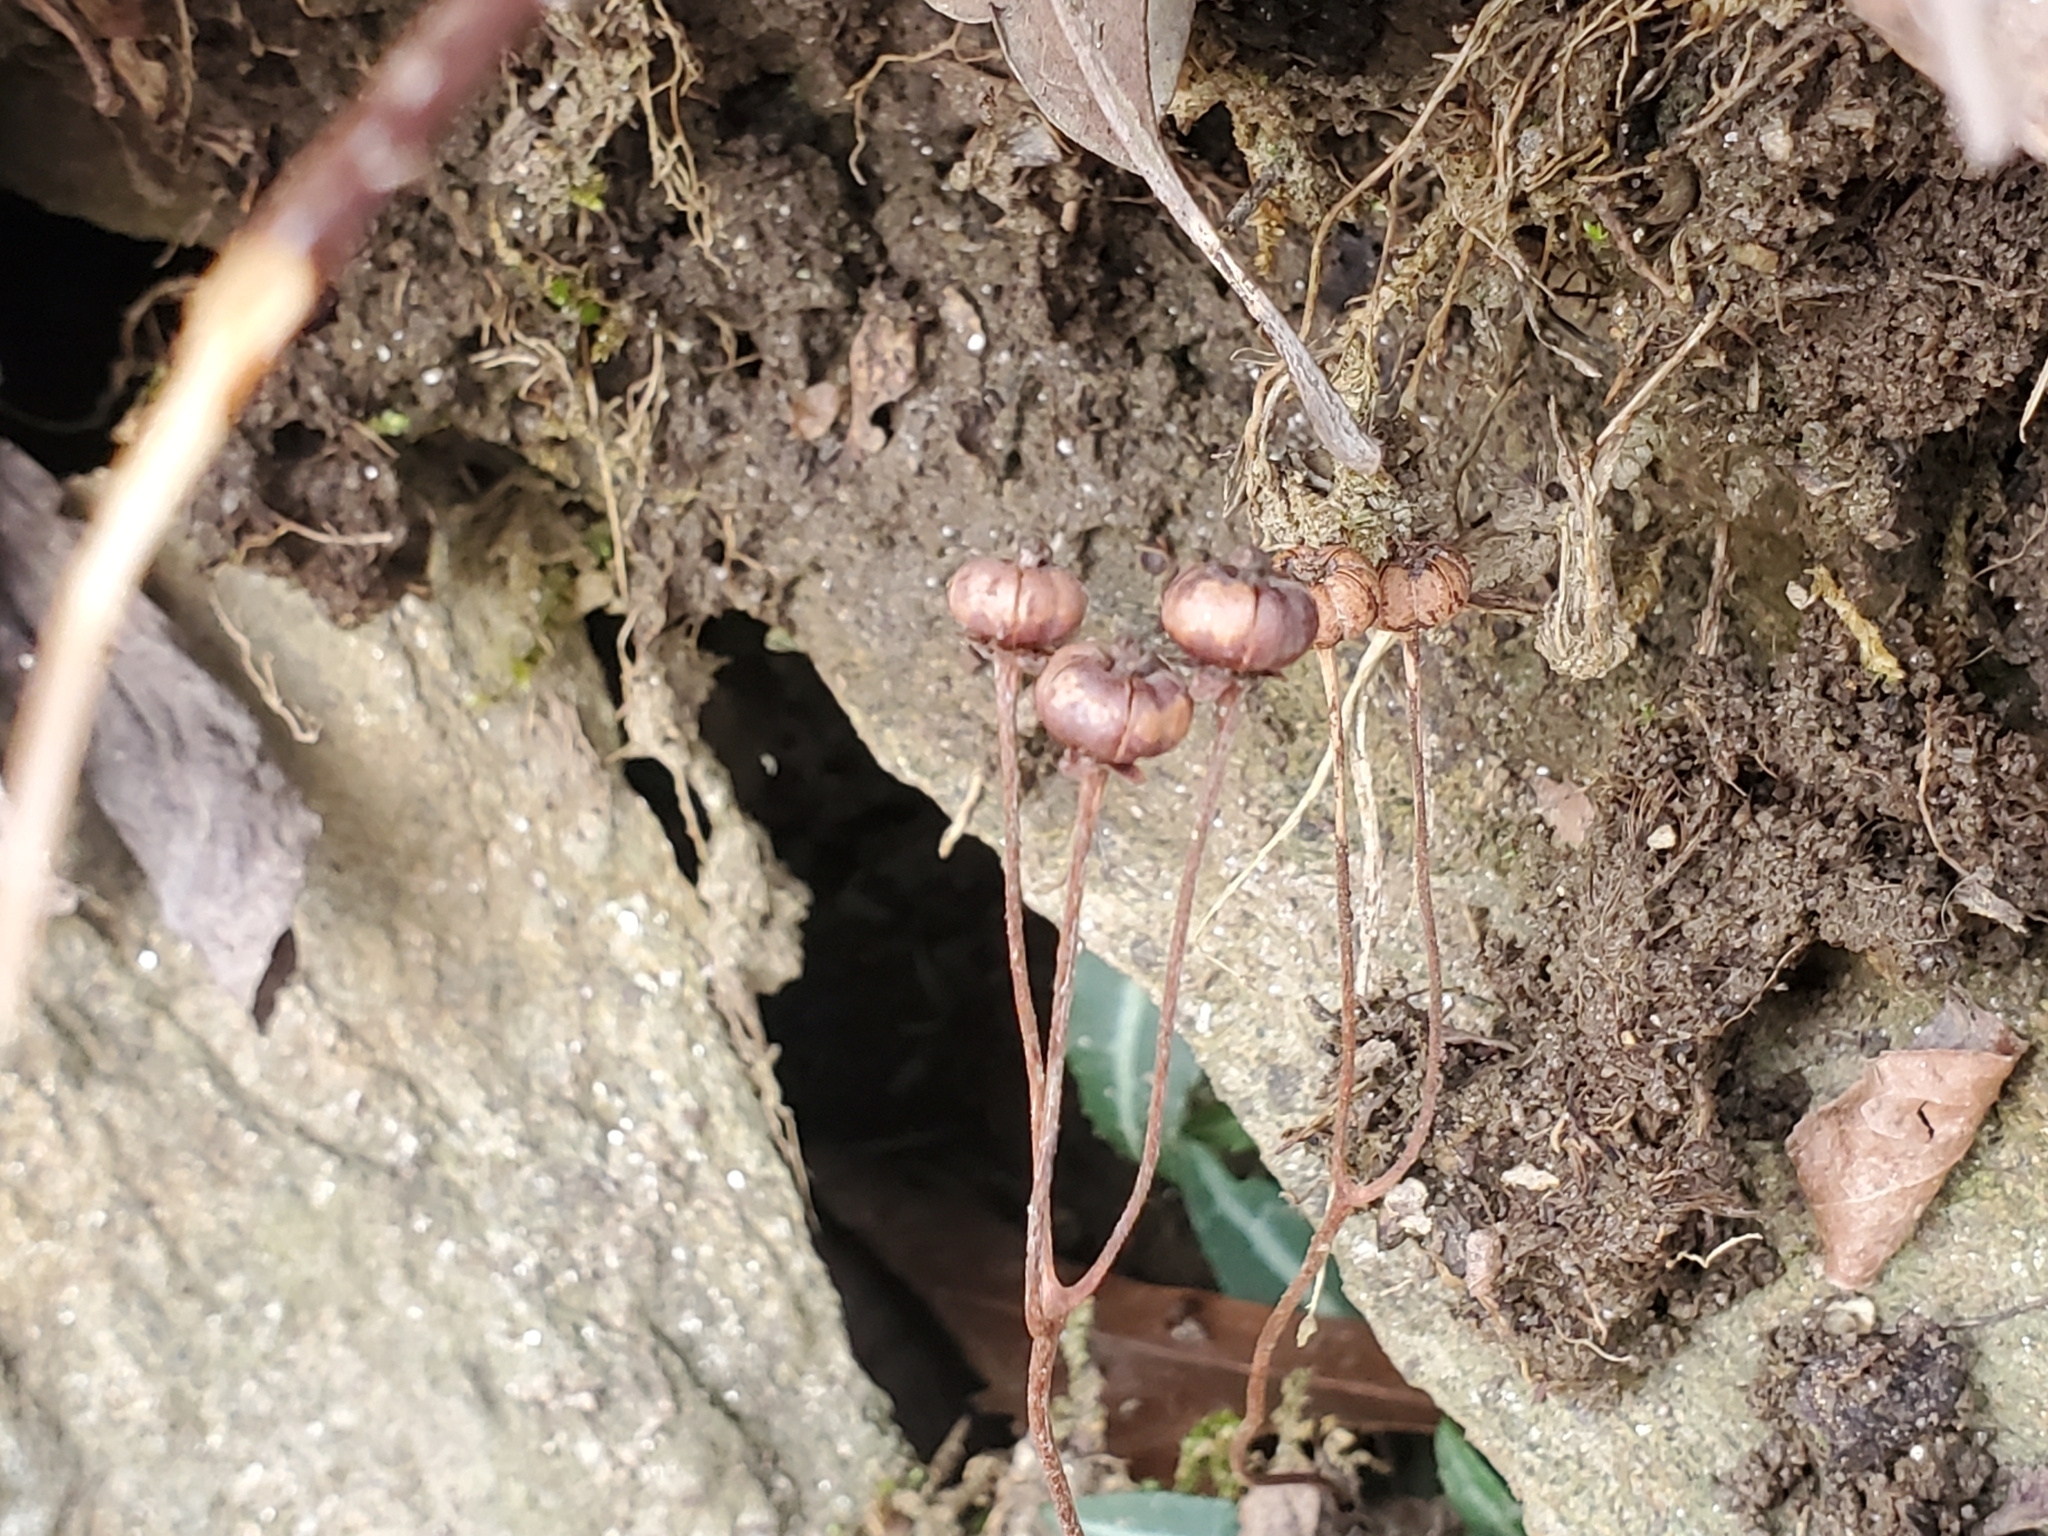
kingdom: Plantae
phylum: Tracheophyta
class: Magnoliopsida
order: Ericales
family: Ericaceae
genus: Chimaphila
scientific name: Chimaphila maculata
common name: Spotted pipsissewa
